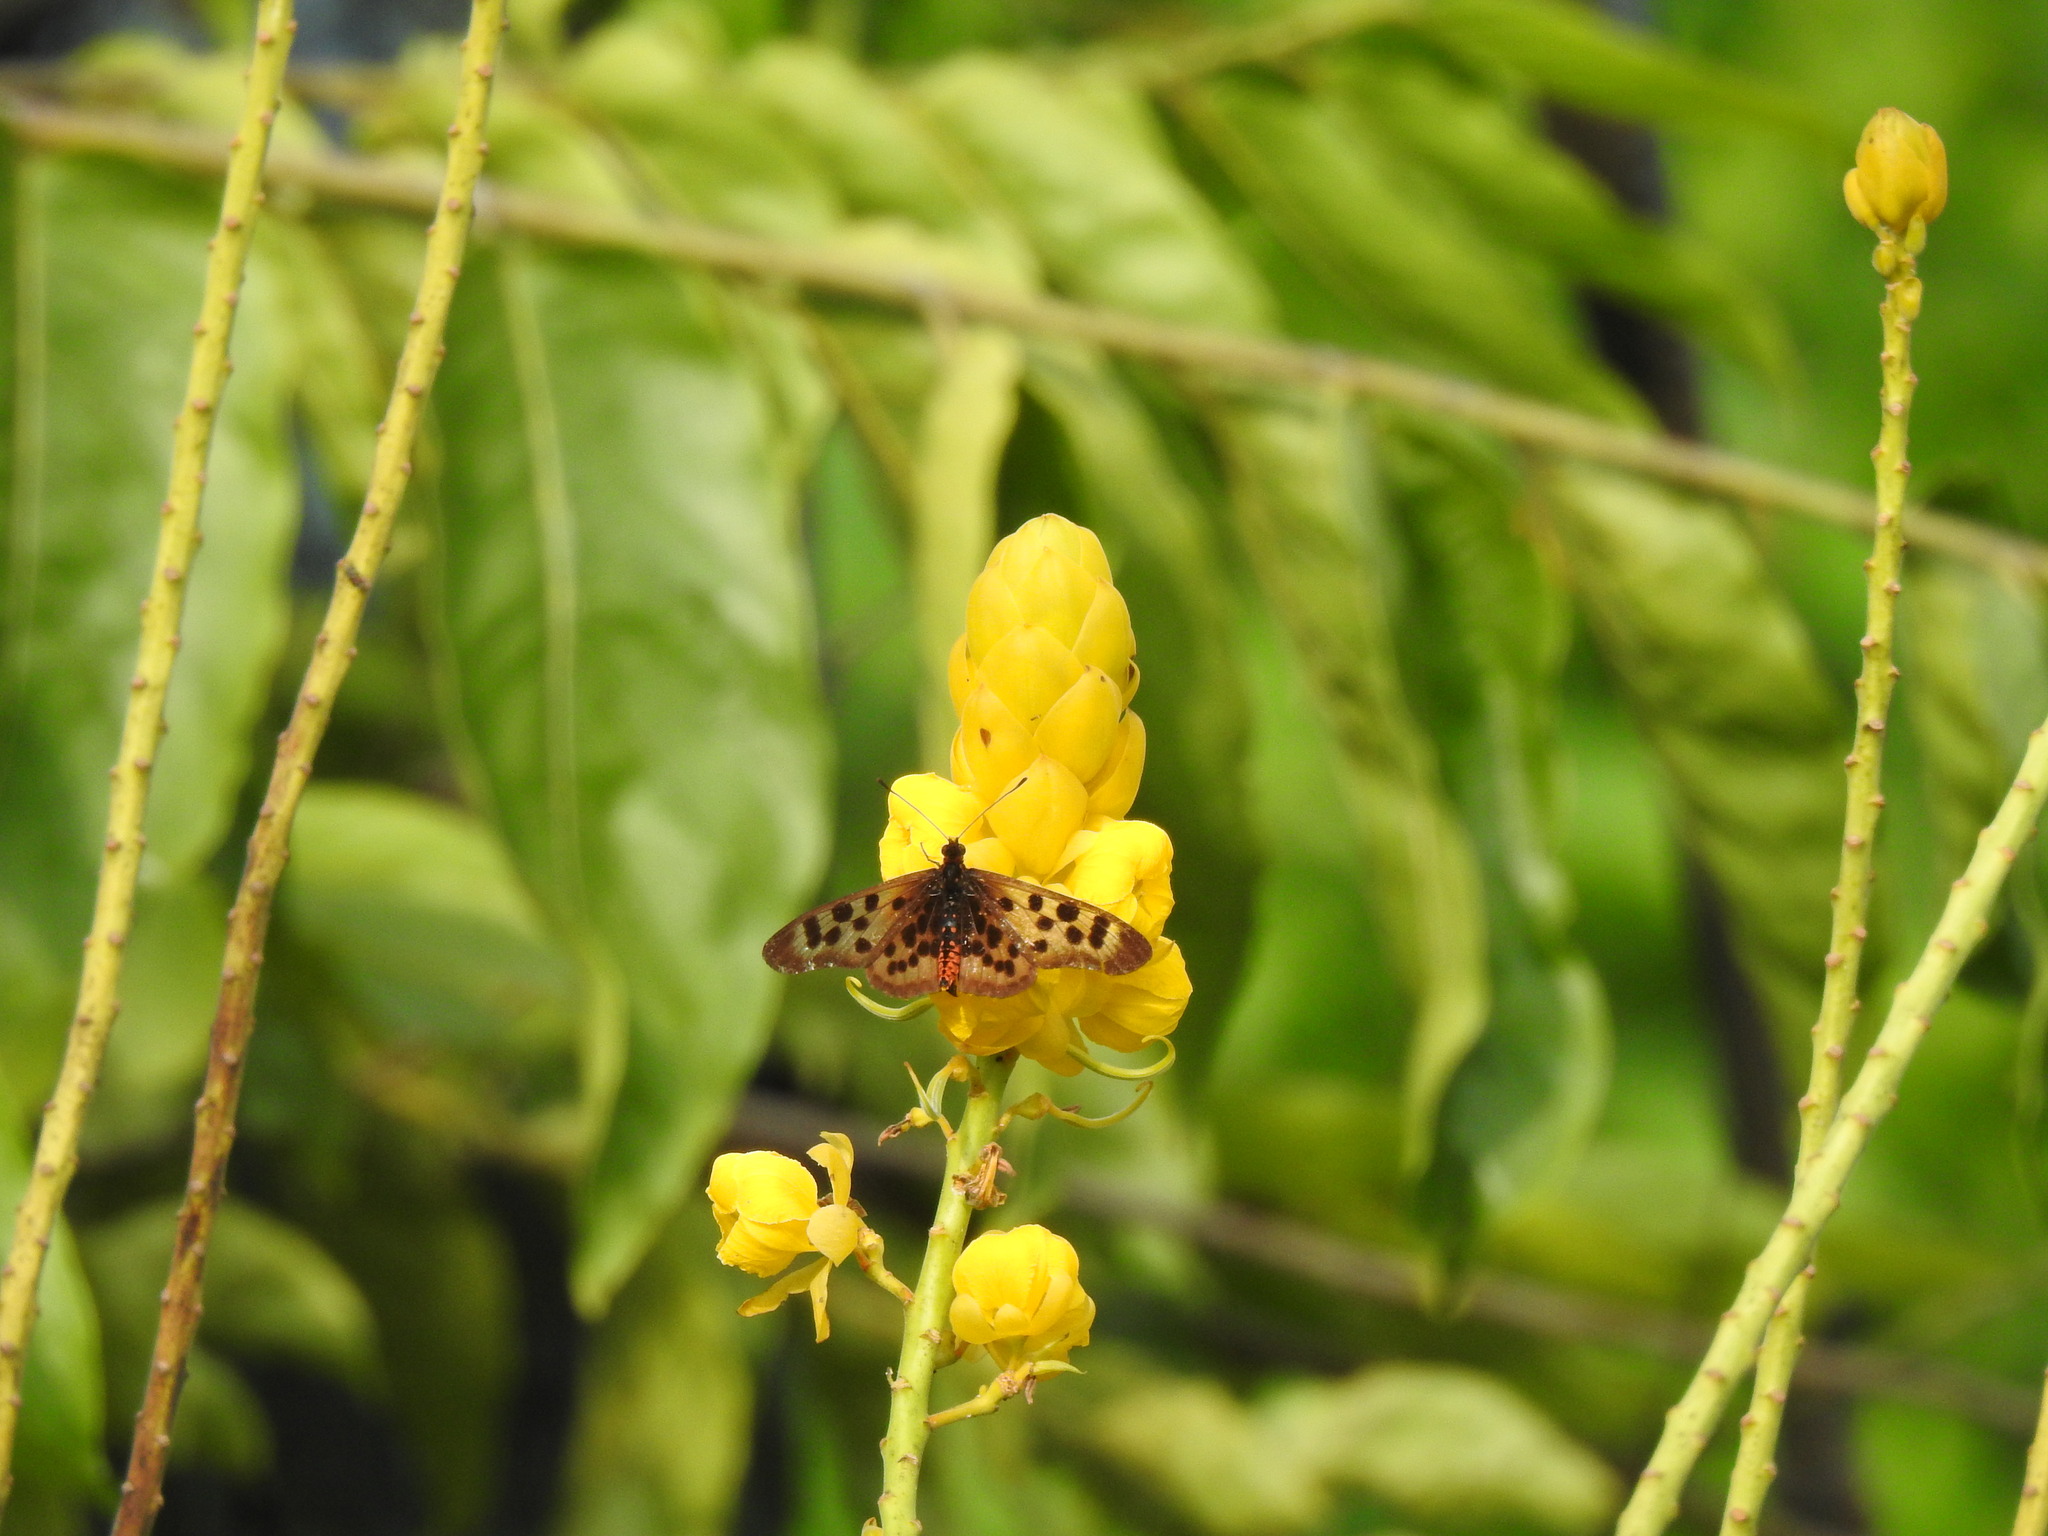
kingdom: Animalia
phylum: Arthropoda
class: Insecta
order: Lepidoptera
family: Nymphalidae
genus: Rubraea
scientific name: Rubraea
